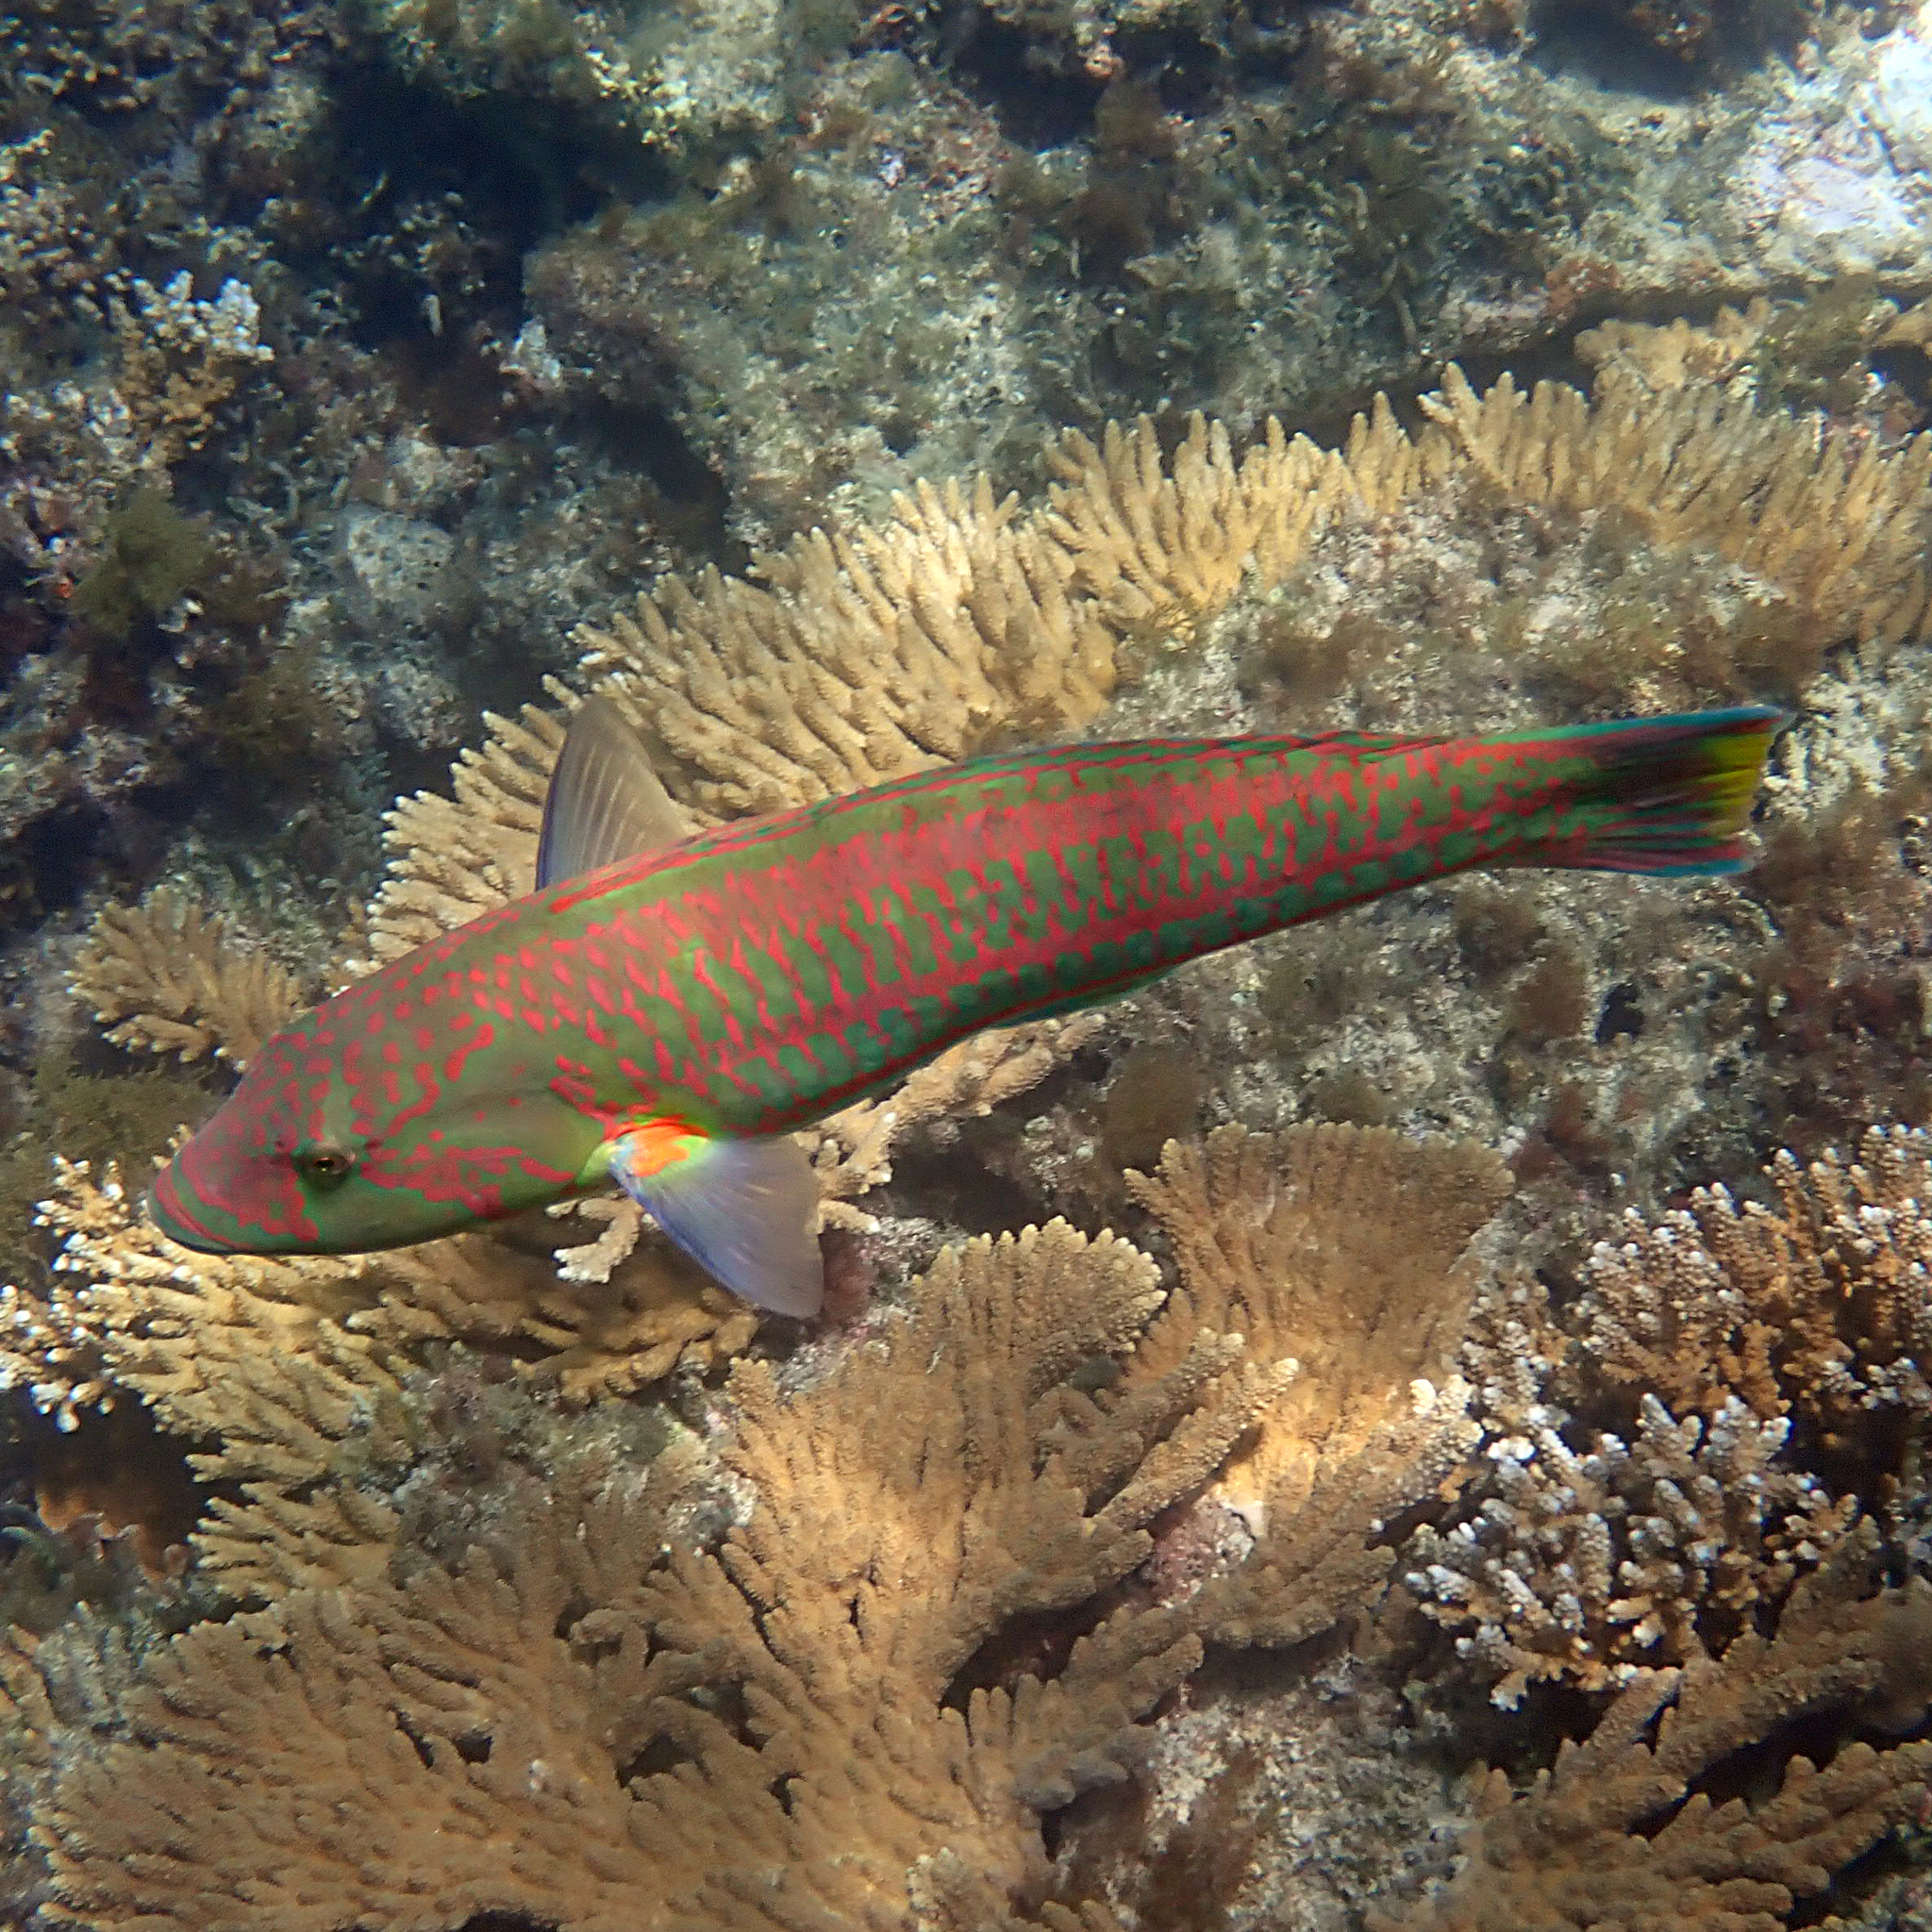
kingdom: Animalia
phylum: Chordata
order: Perciformes
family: Labridae
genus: Thalassoma
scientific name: Thalassoma purpureum
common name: Parrotfish
